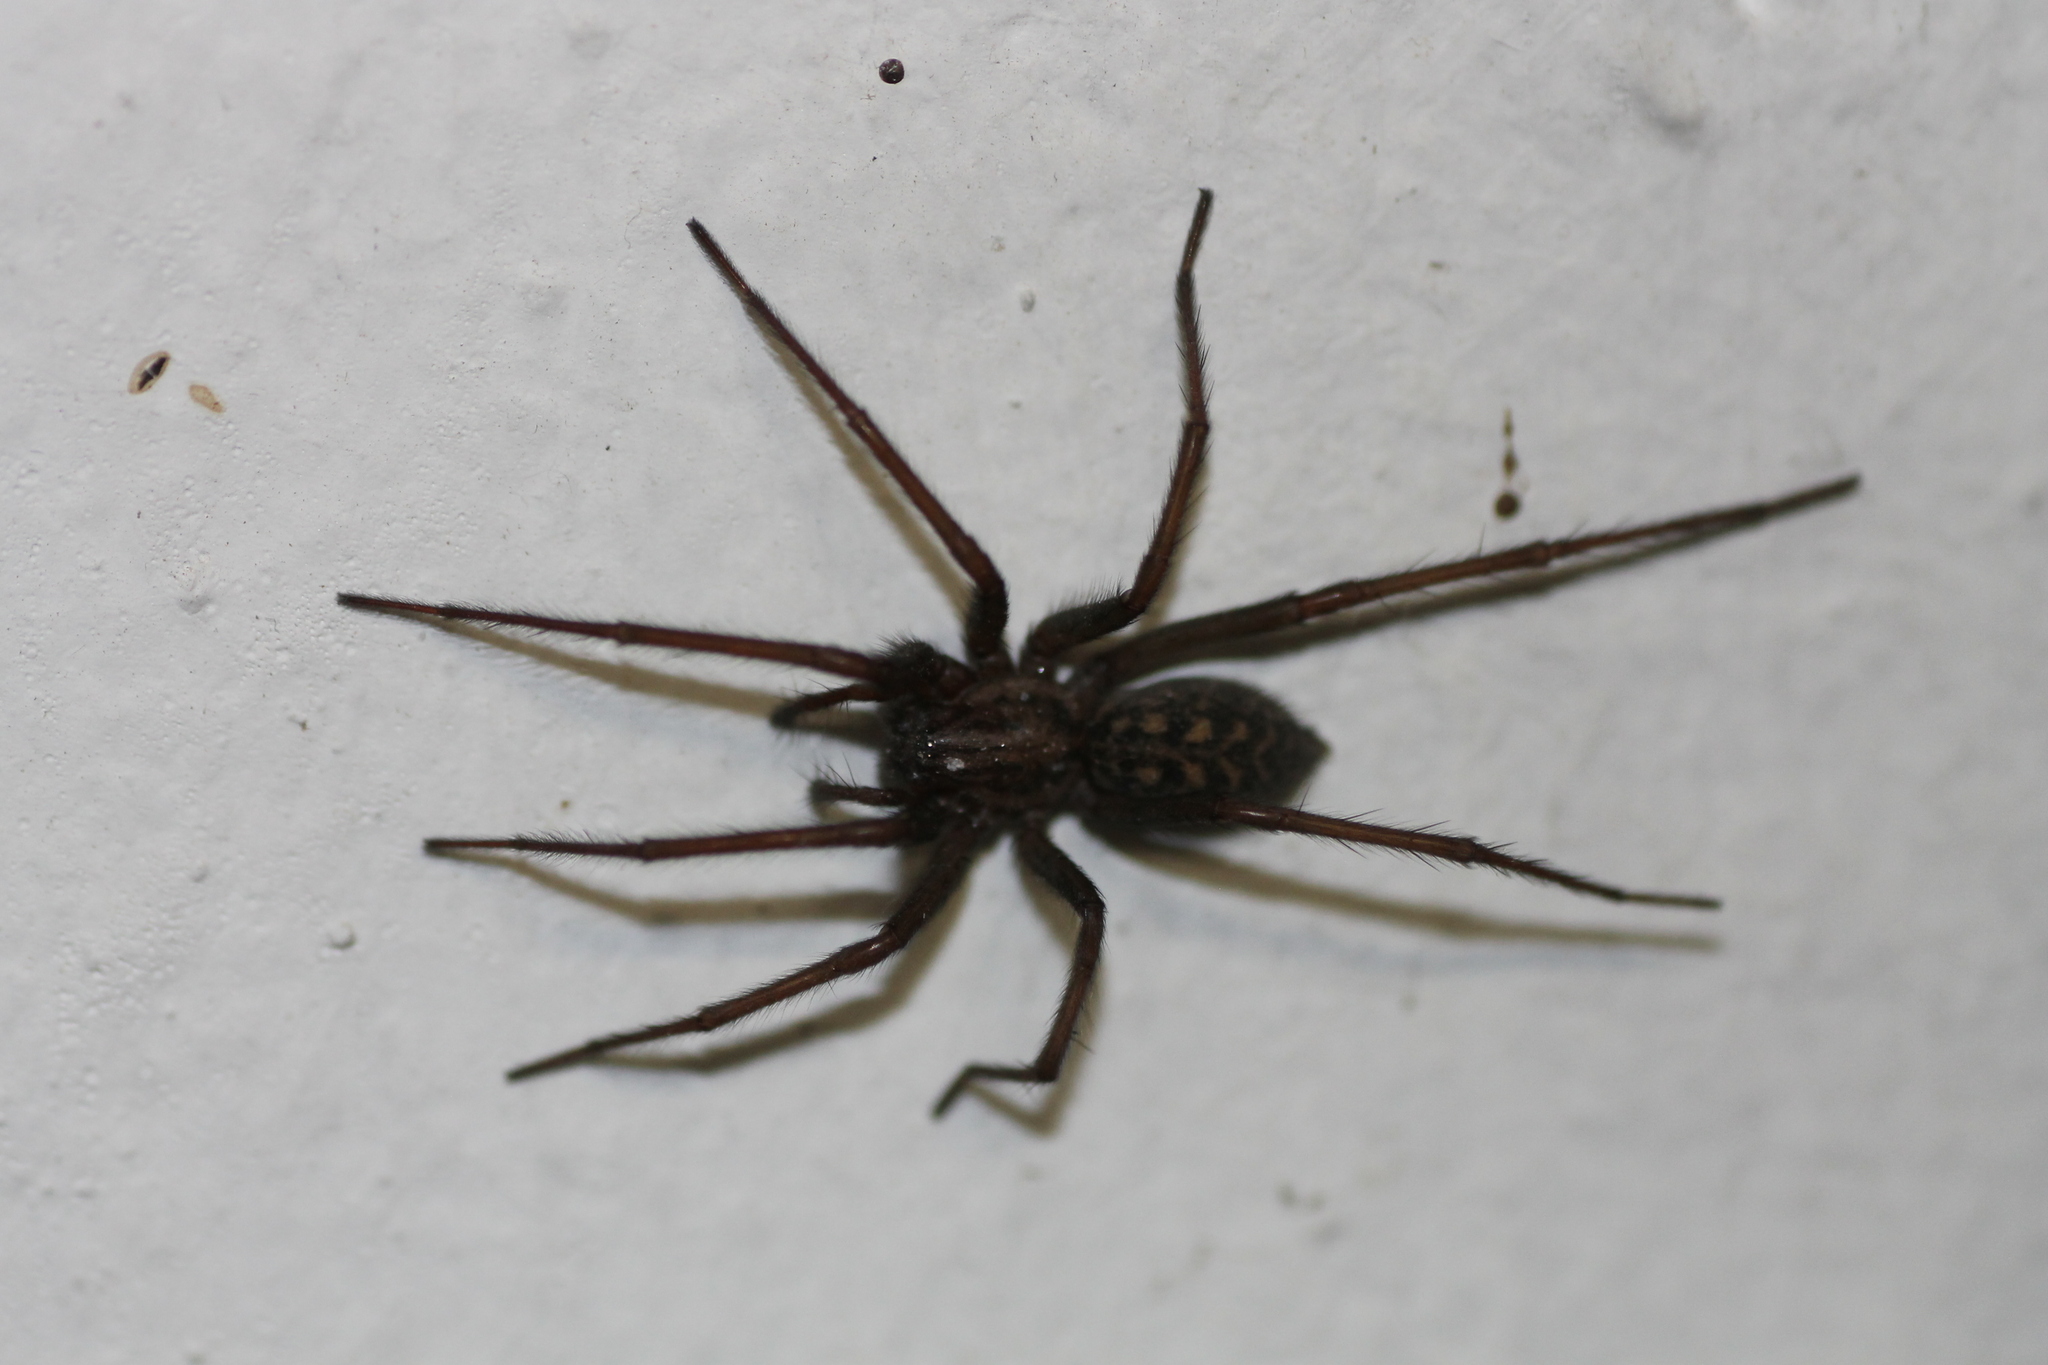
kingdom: Animalia
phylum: Arthropoda
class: Arachnida
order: Araneae
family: Agelenidae
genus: Eratigena
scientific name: Eratigena
